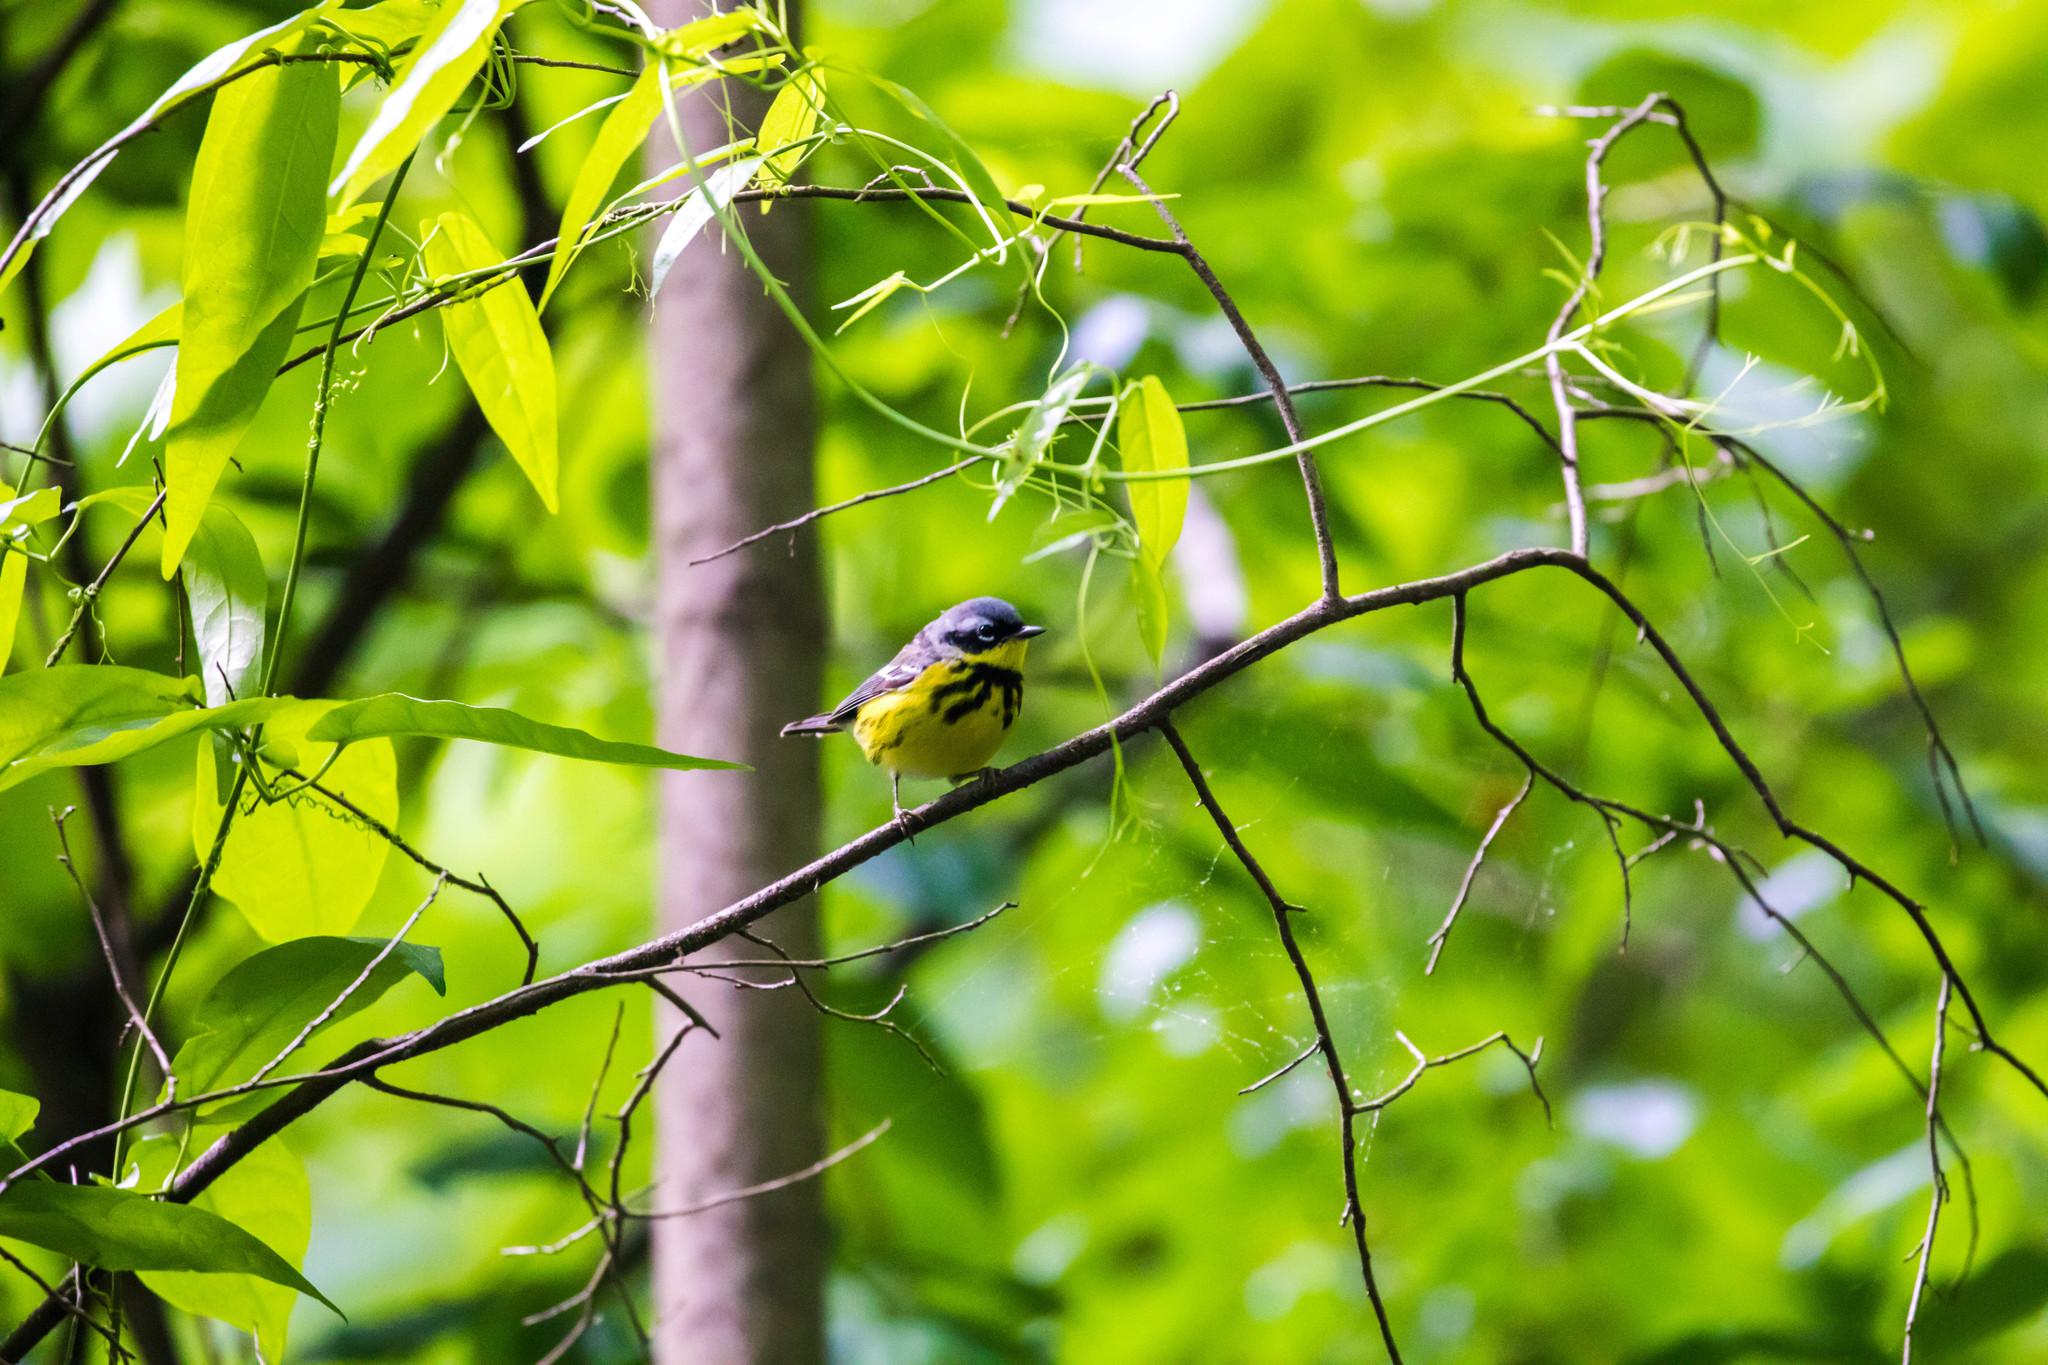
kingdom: Animalia
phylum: Chordata
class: Aves
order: Passeriformes
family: Parulidae
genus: Setophaga
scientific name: Setophaga magnolia
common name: Magnolia warbler
